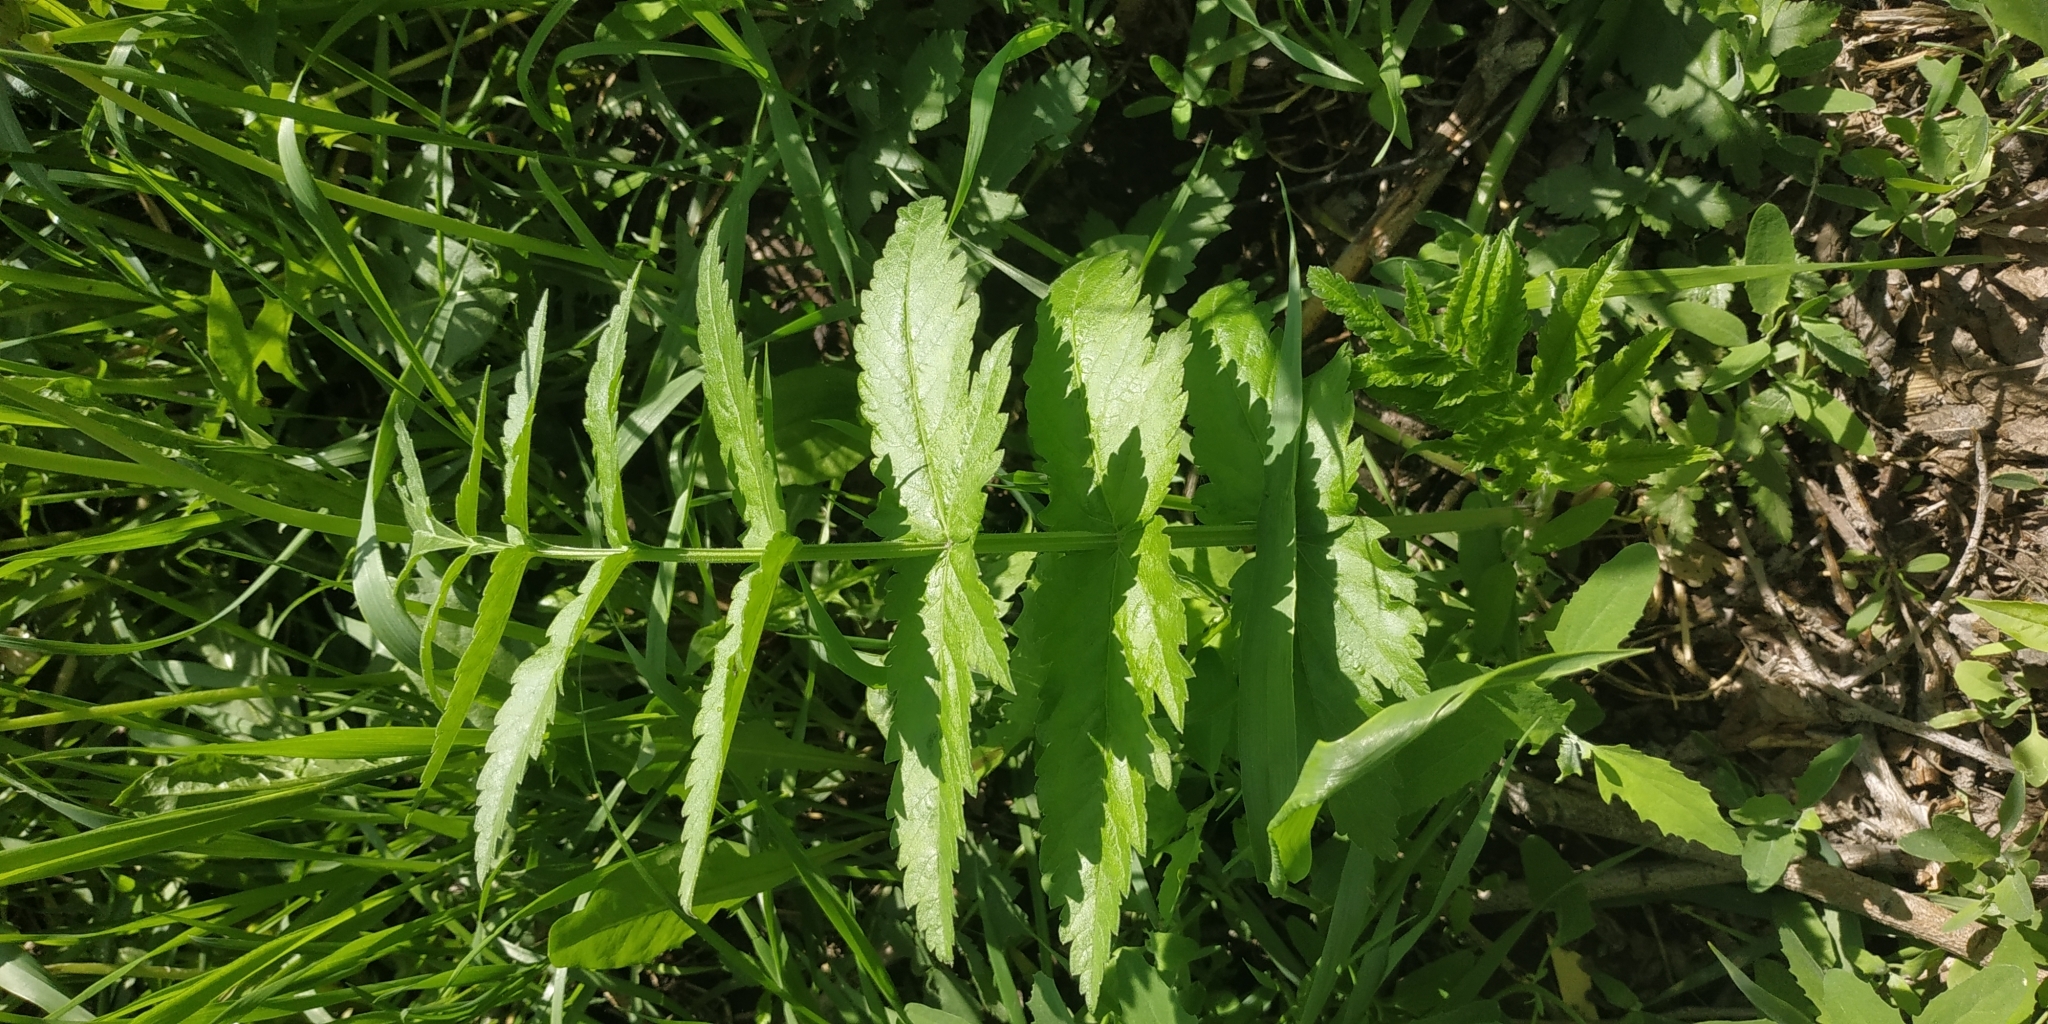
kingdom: Plantae
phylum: Tracheophyta
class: Magnoliopsida
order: Apiales
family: Apiaceae
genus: Pastinaca
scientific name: Pastinaca sativa
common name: Wild parsnip
